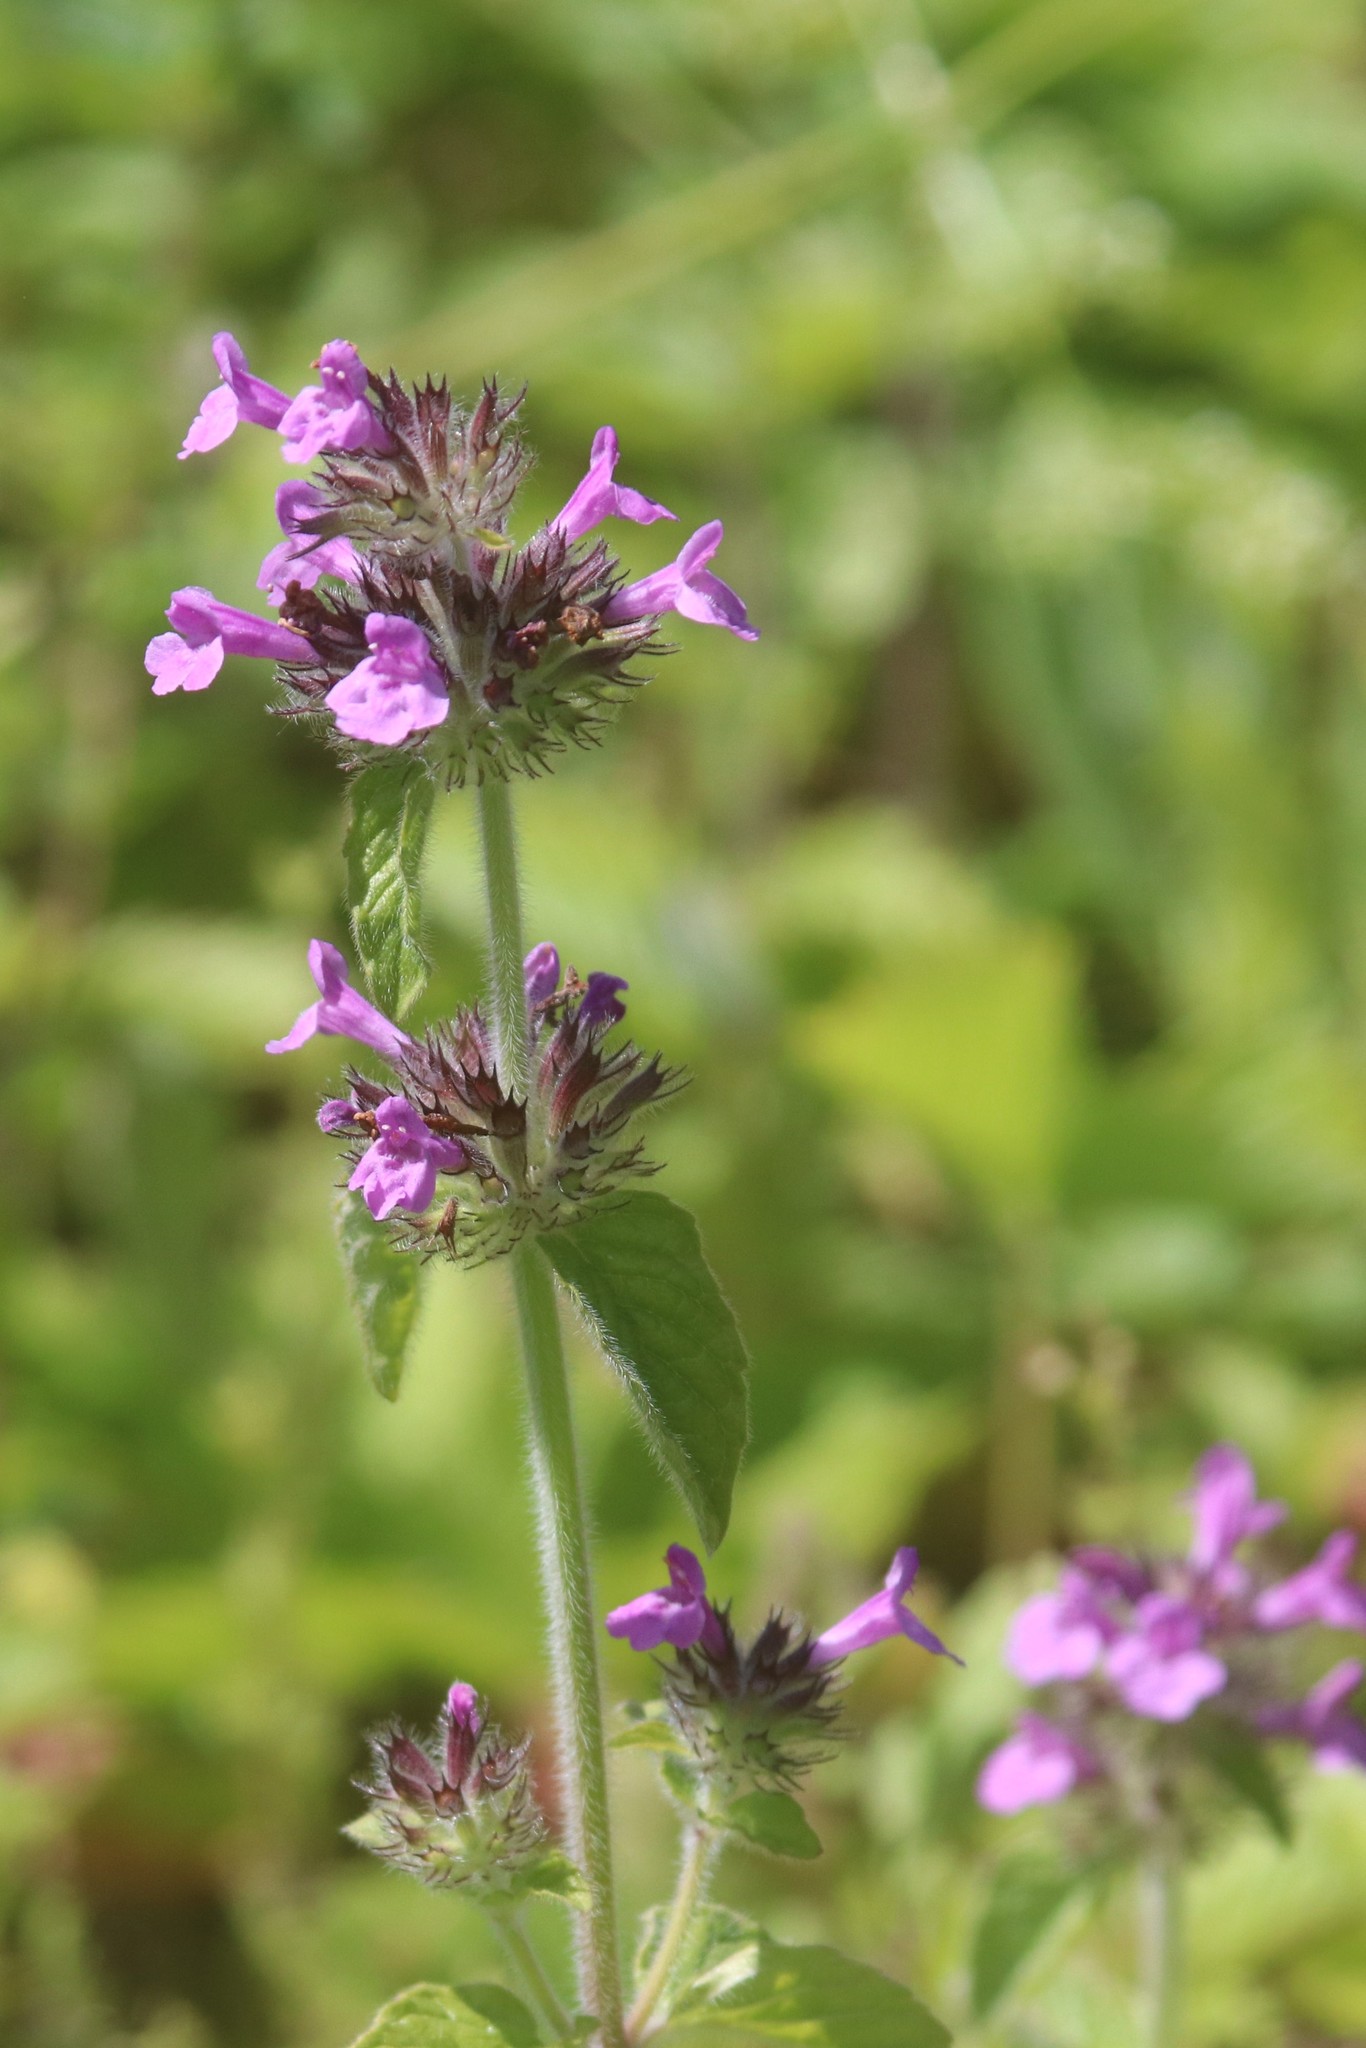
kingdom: Plantae
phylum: Tracheophyta
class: Magnoliopsida
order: Lamiales
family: Lamiaceae
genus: Clinopodium
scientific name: Clinopodium vulgare
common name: Wild basil
